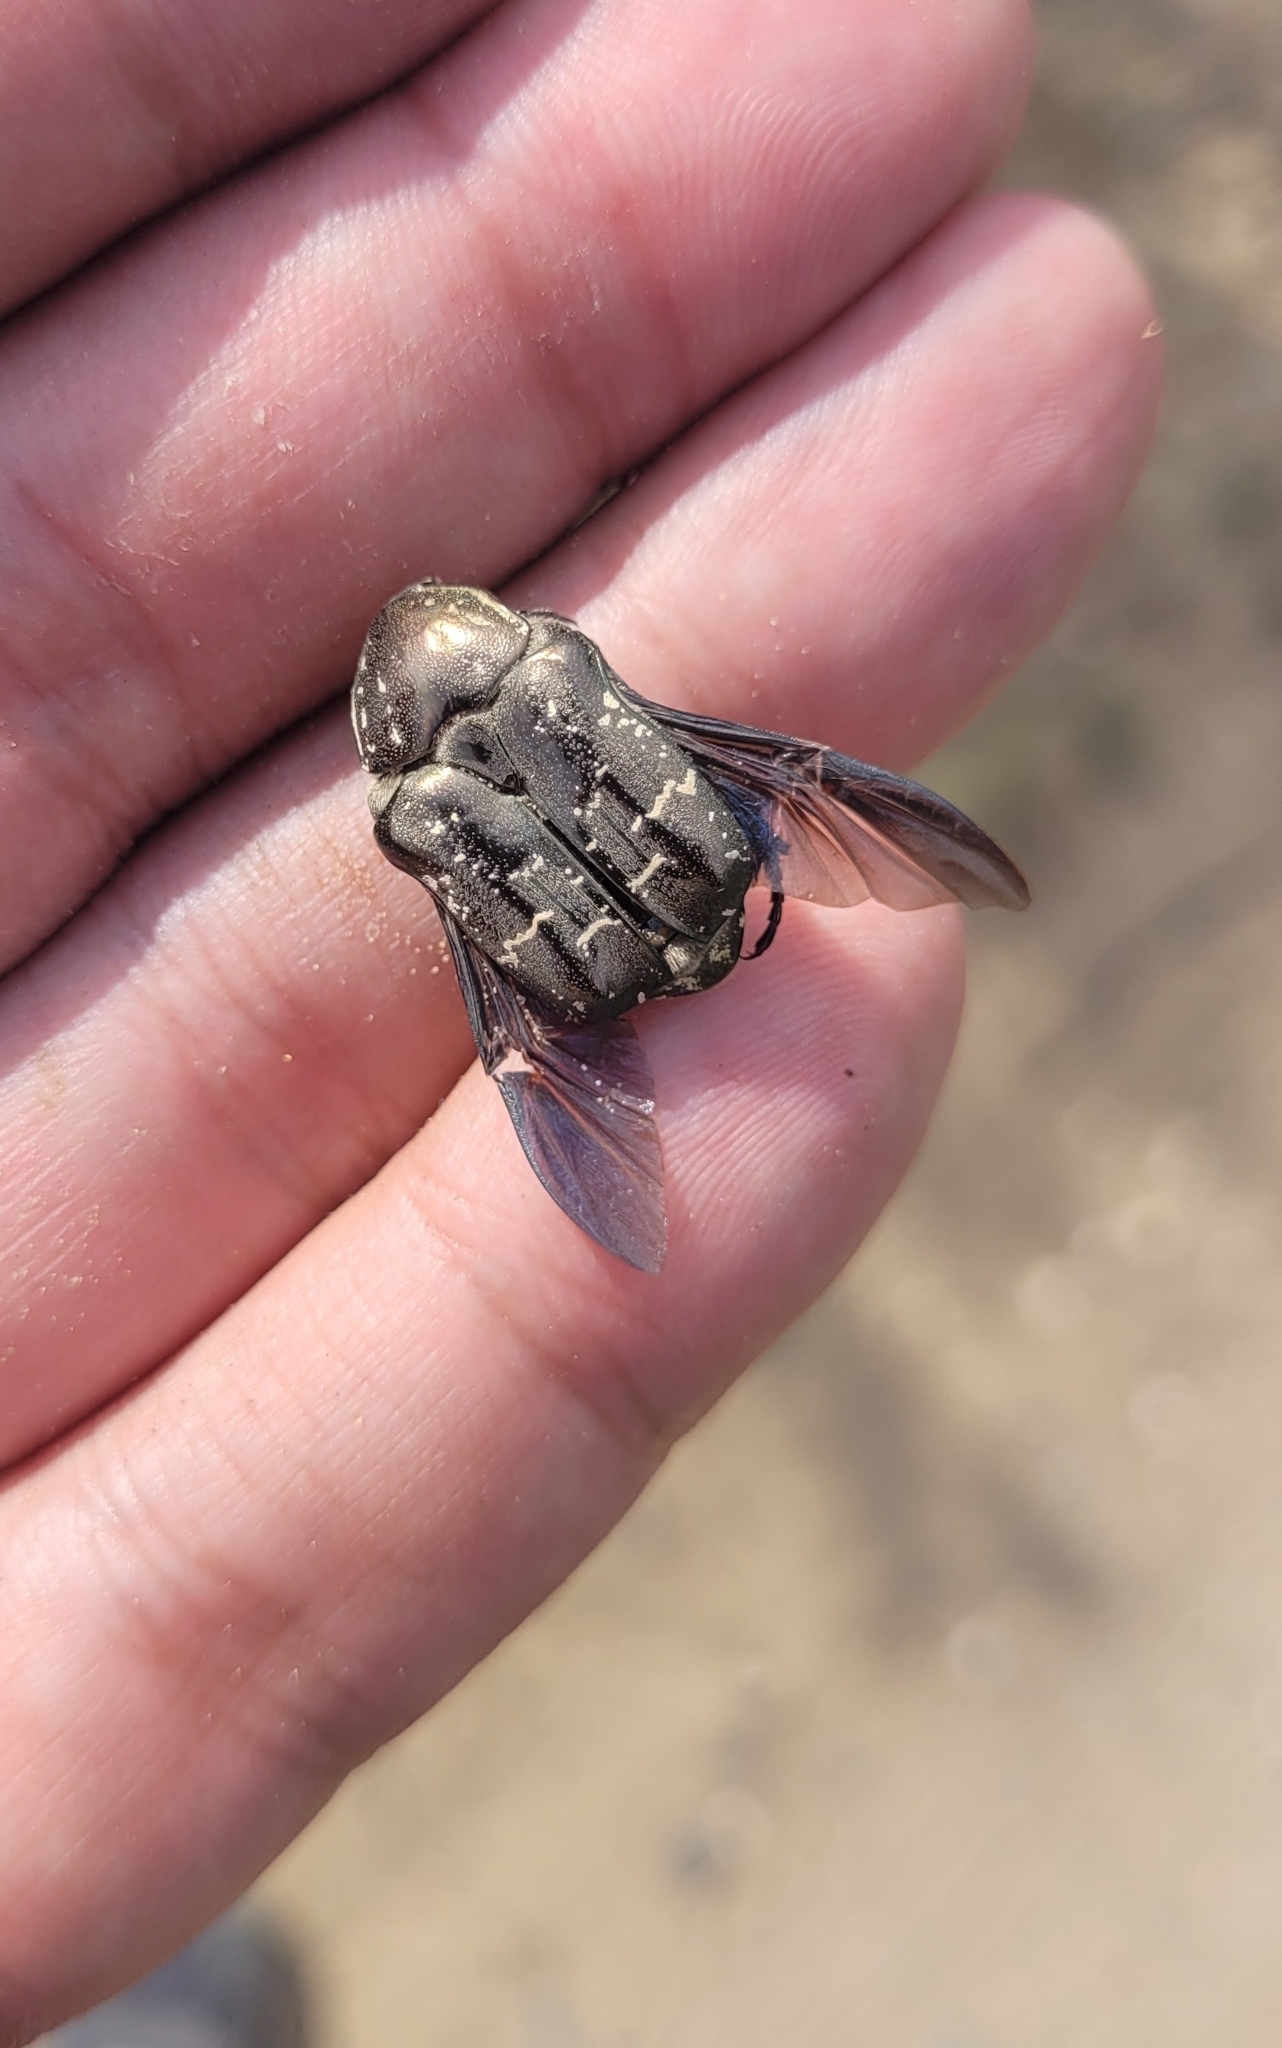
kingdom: Animalia
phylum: Arthropoda
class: Insecta
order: Coleoptera
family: Scarabaeidae
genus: Protaetia
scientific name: Protaetia cuprea
